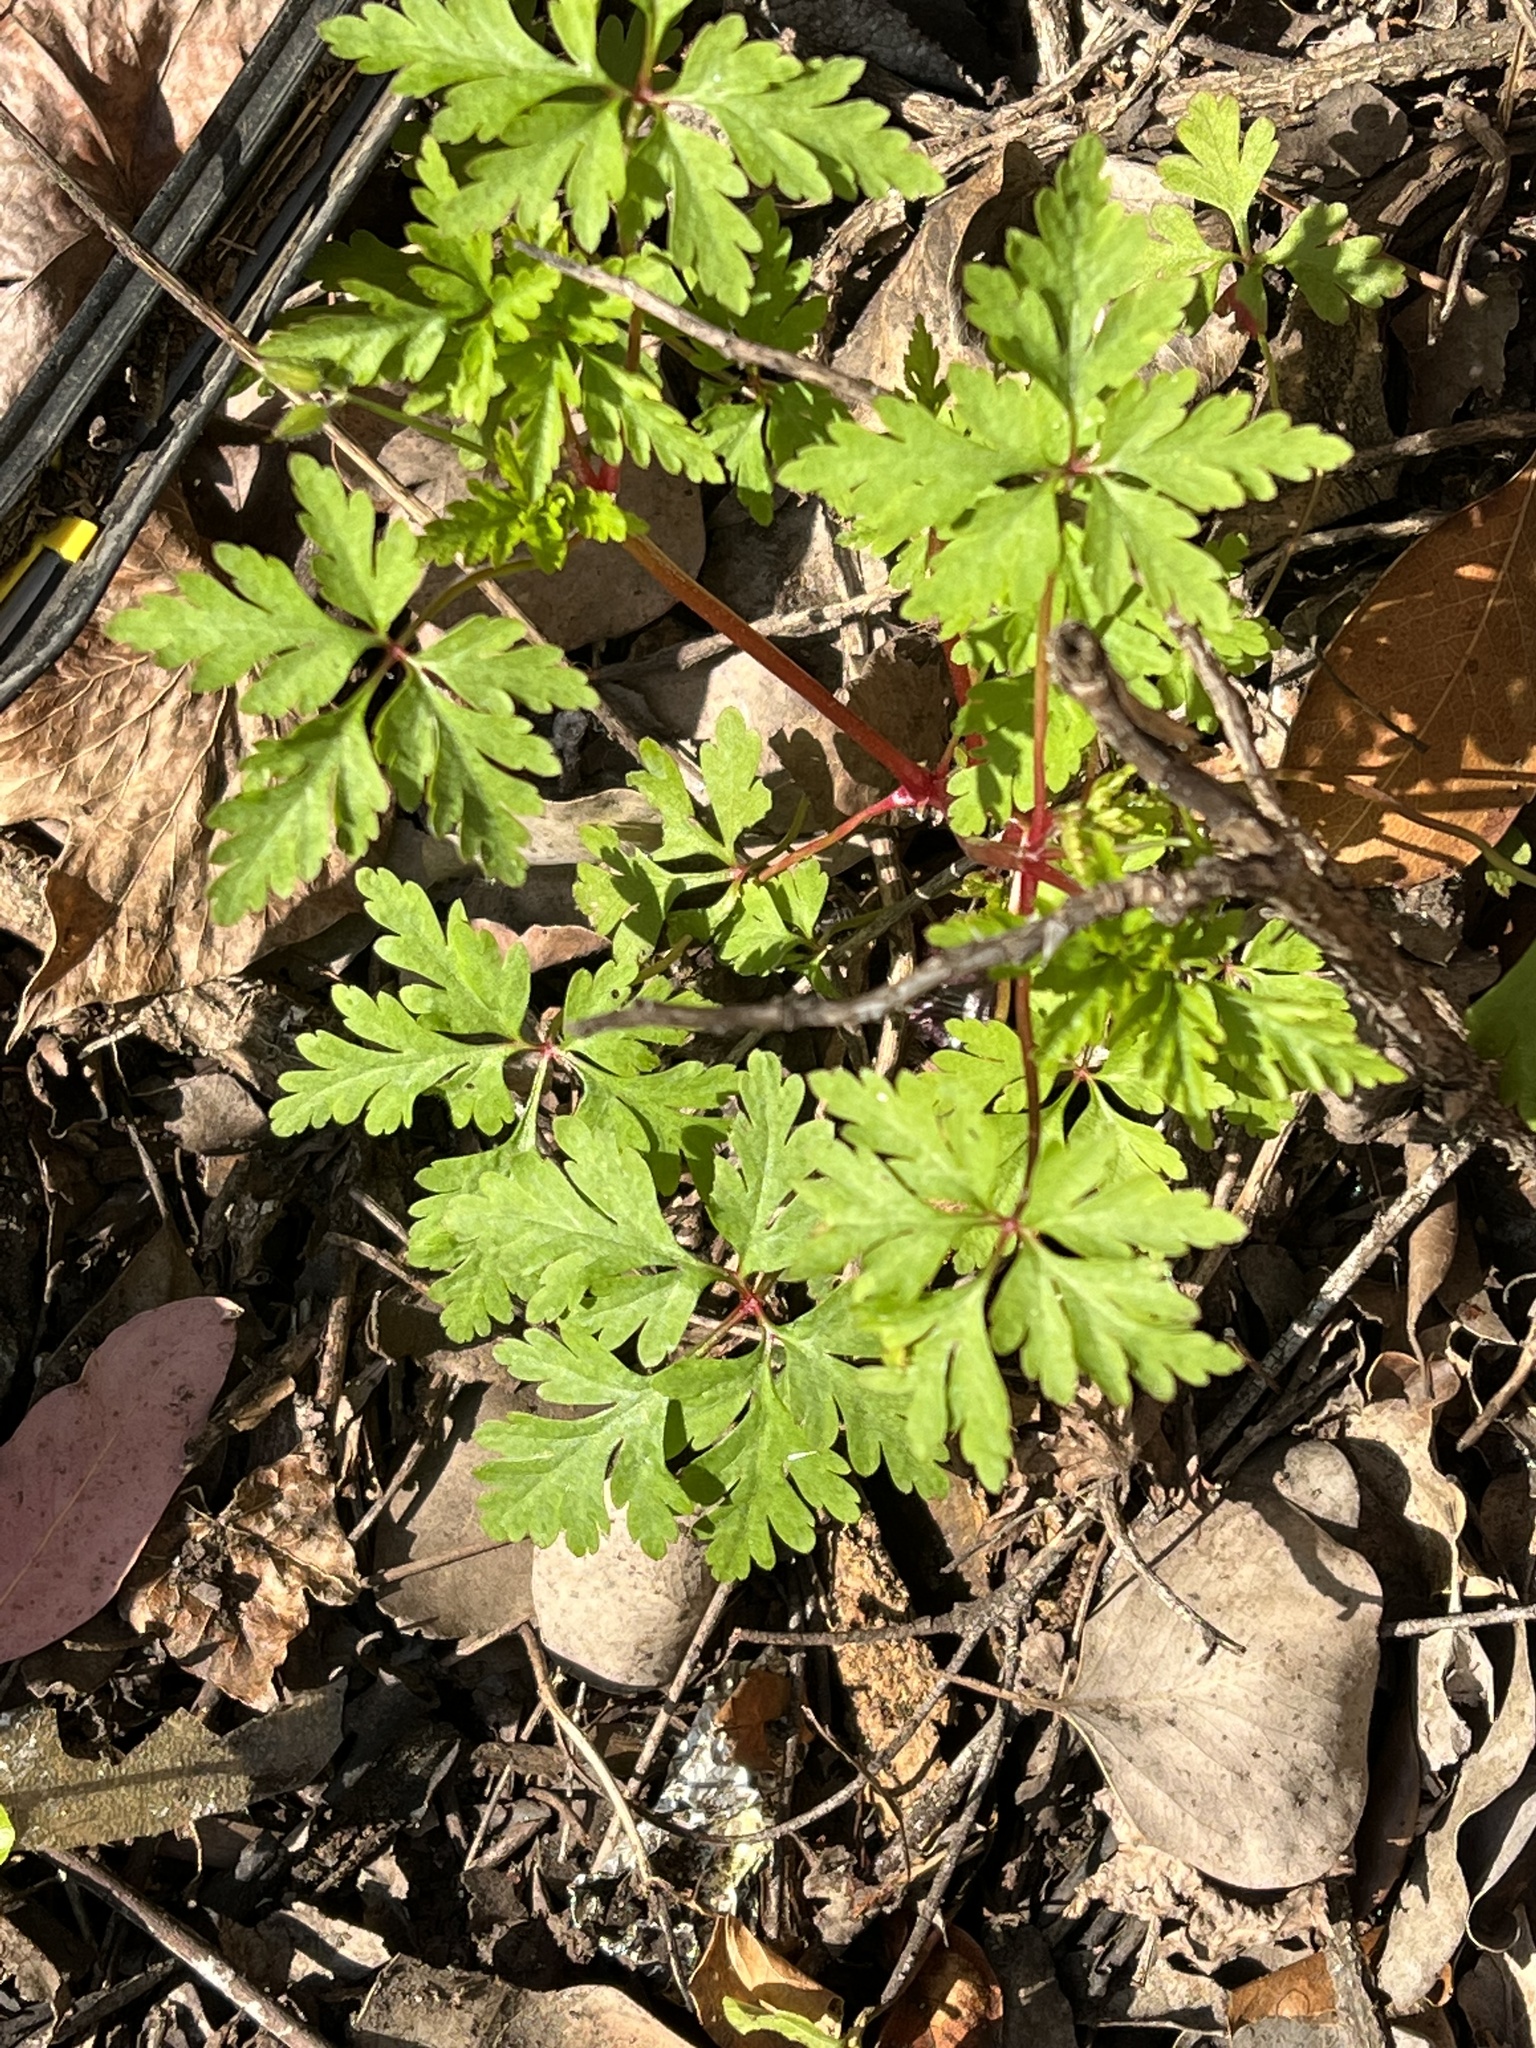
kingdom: Plantae
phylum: Tracheophyta
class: Magnoliopsida
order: Geraniales
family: Geraniaceae
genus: Geranium
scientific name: Geranium
